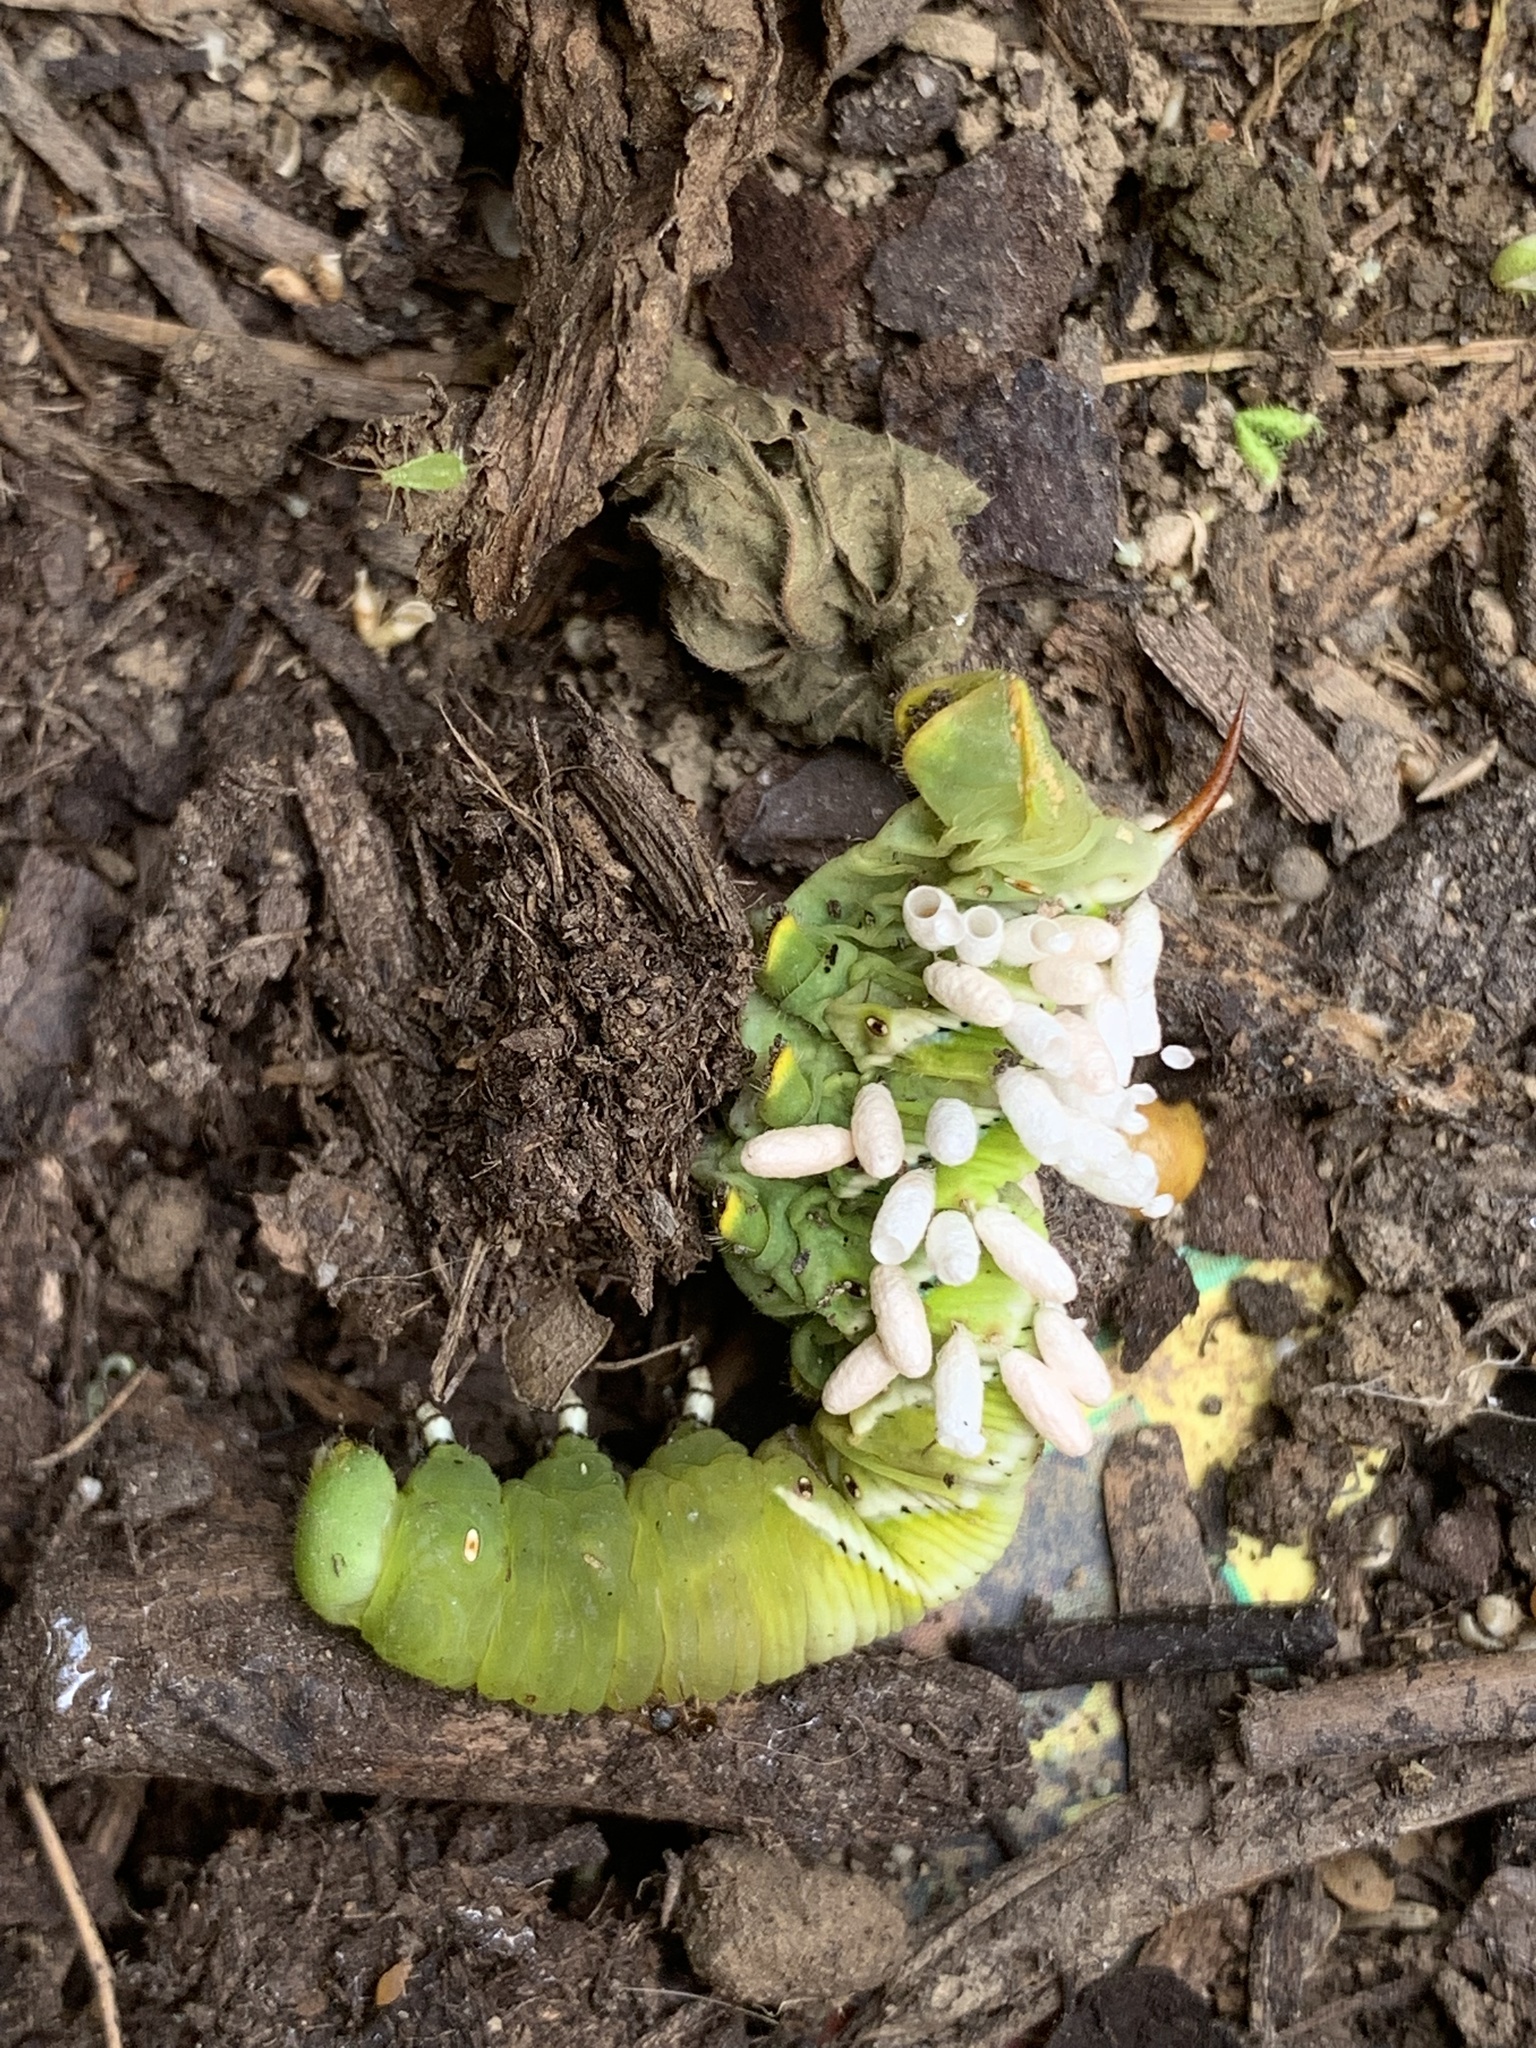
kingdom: Animalia
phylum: Arthropoda
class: Insecta
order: Lepidoptera
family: Sphingidae
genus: Manduca
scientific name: Manduca sexta
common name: Carolina sphinx
